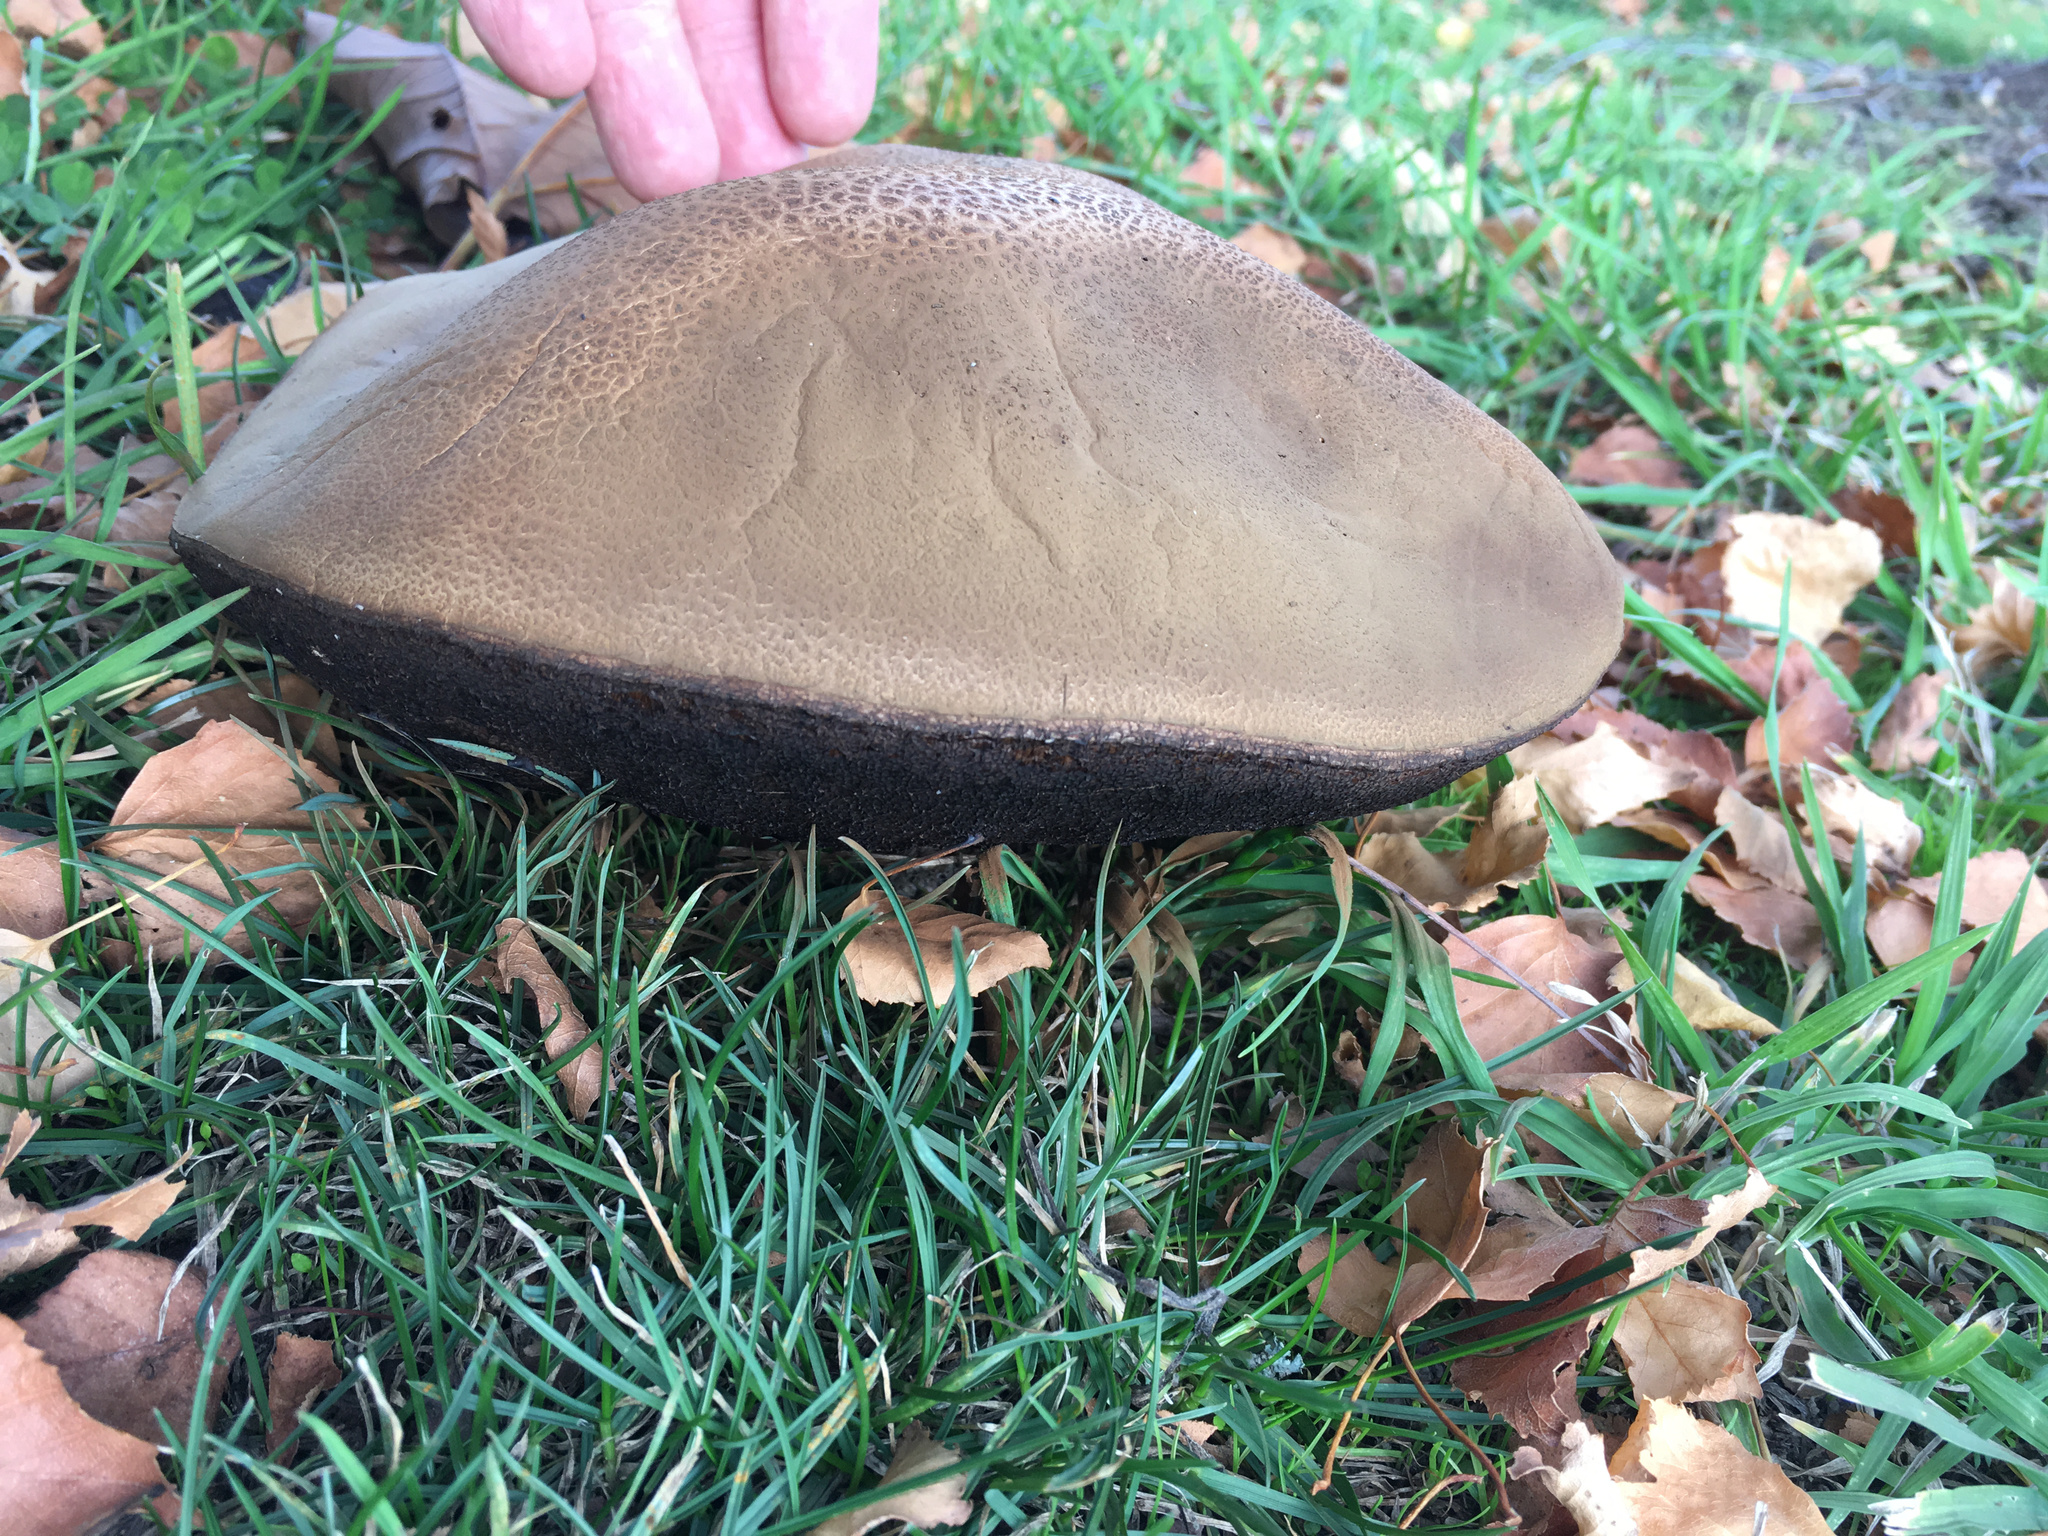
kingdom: Fungi
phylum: Basidiomycota
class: Agaricomycetes
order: Boletales
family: Boletaceae
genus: Leccinum
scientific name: Leccinum scabrum
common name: Blushing bolete
